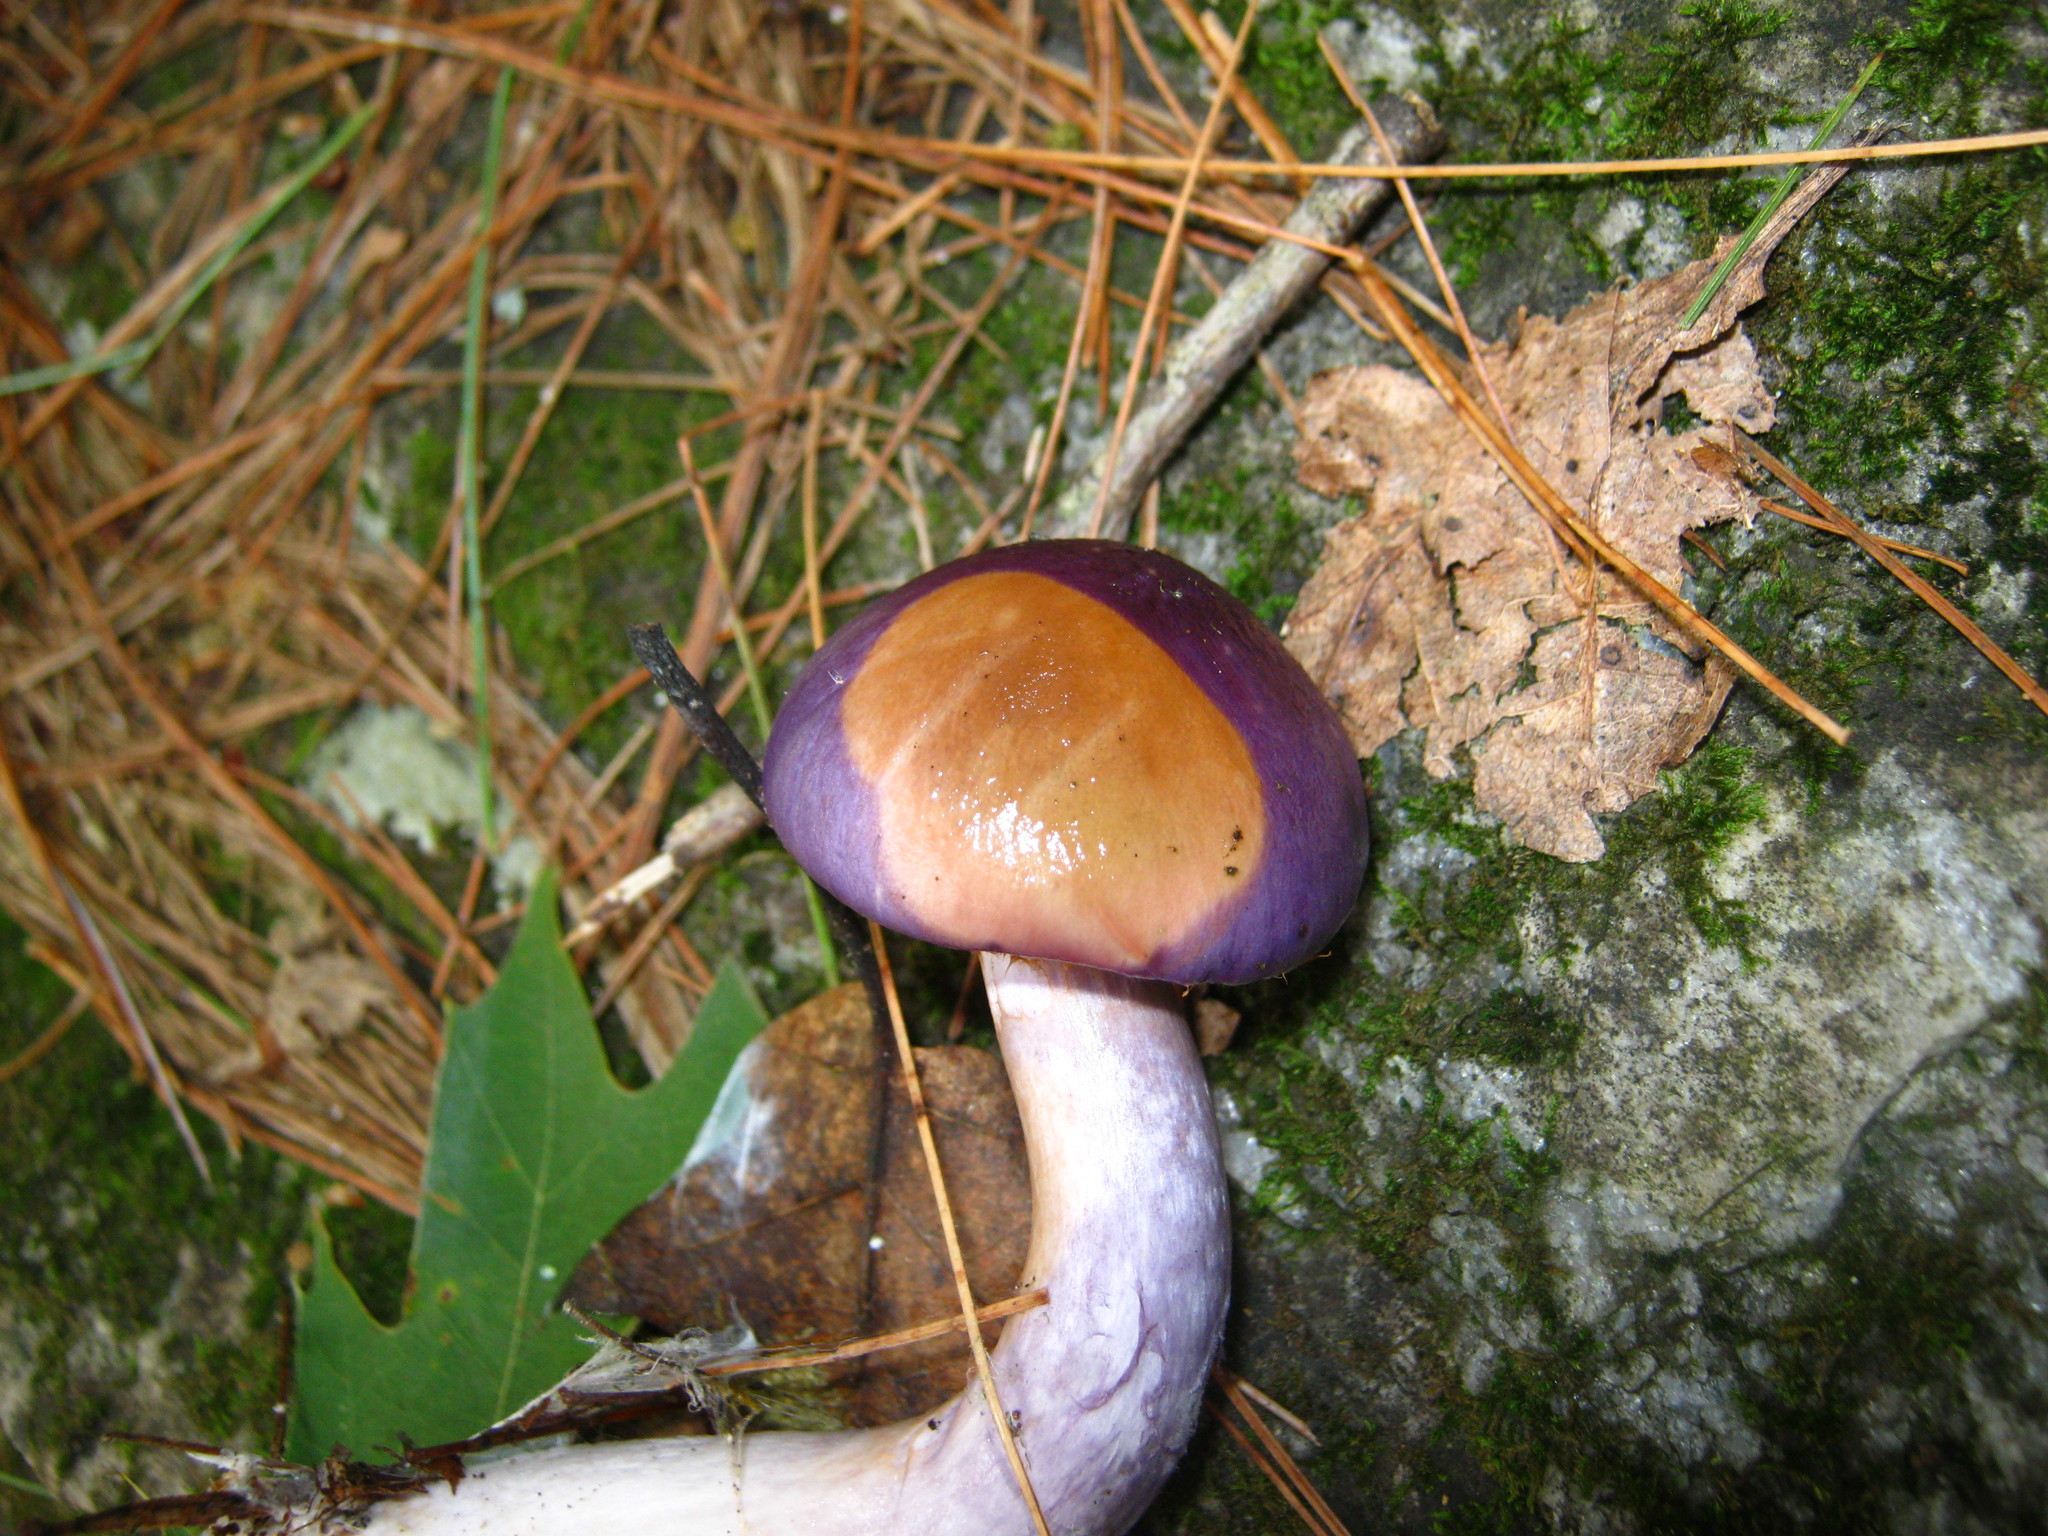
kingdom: Fungi
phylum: Basidiomycota
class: Agaricomycetes
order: Agaricales
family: Cortinariaceae
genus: Cortinarius
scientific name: Cortinarius iodes
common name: Viscid violet cort
